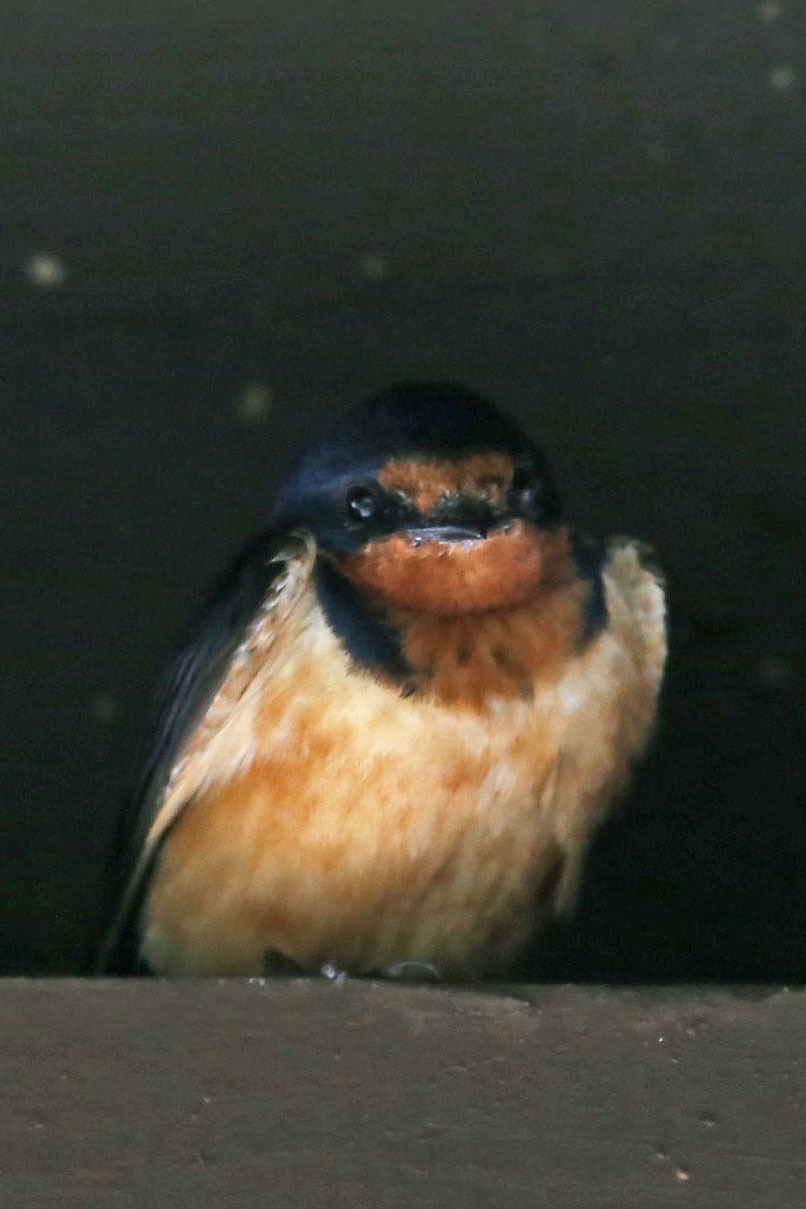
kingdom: Animalia
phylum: Chordata
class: Aves
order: Passeriformes
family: Hirundinidae
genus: Hirundo
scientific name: Hirundo rustica
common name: Barn swallow
